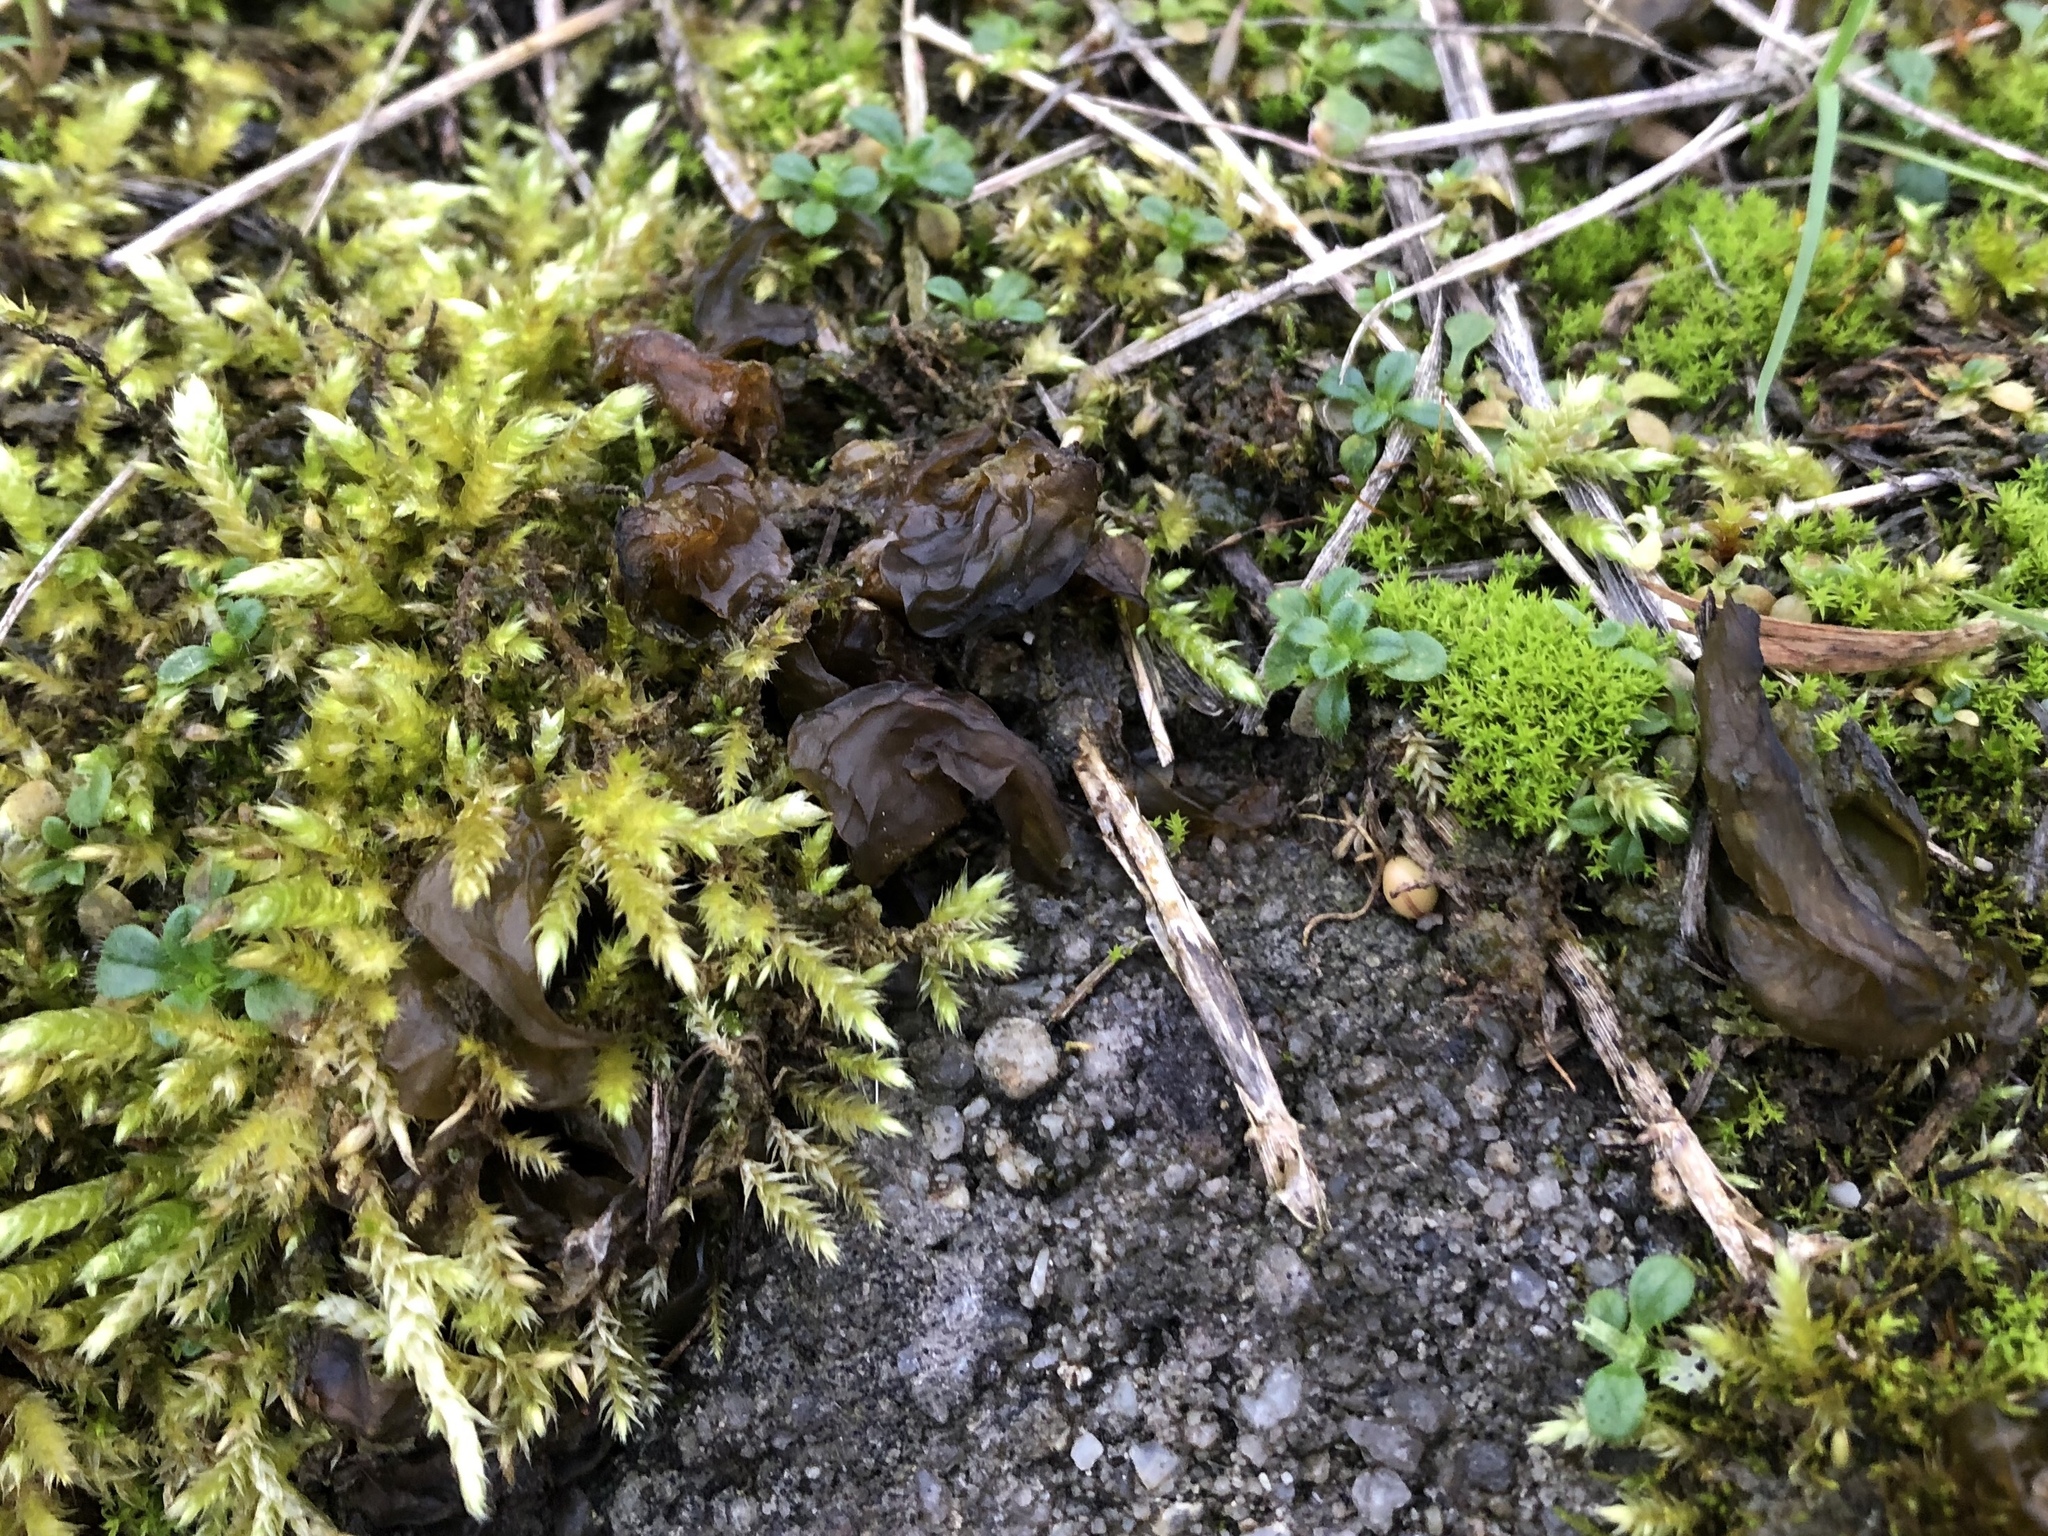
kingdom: Bacteria
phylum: Cyanobacteria
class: Cyanobacteriia
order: Cyanobacteriales
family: Nostocaceae
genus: Nostoc
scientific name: Nostoc commune
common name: Star jelly
